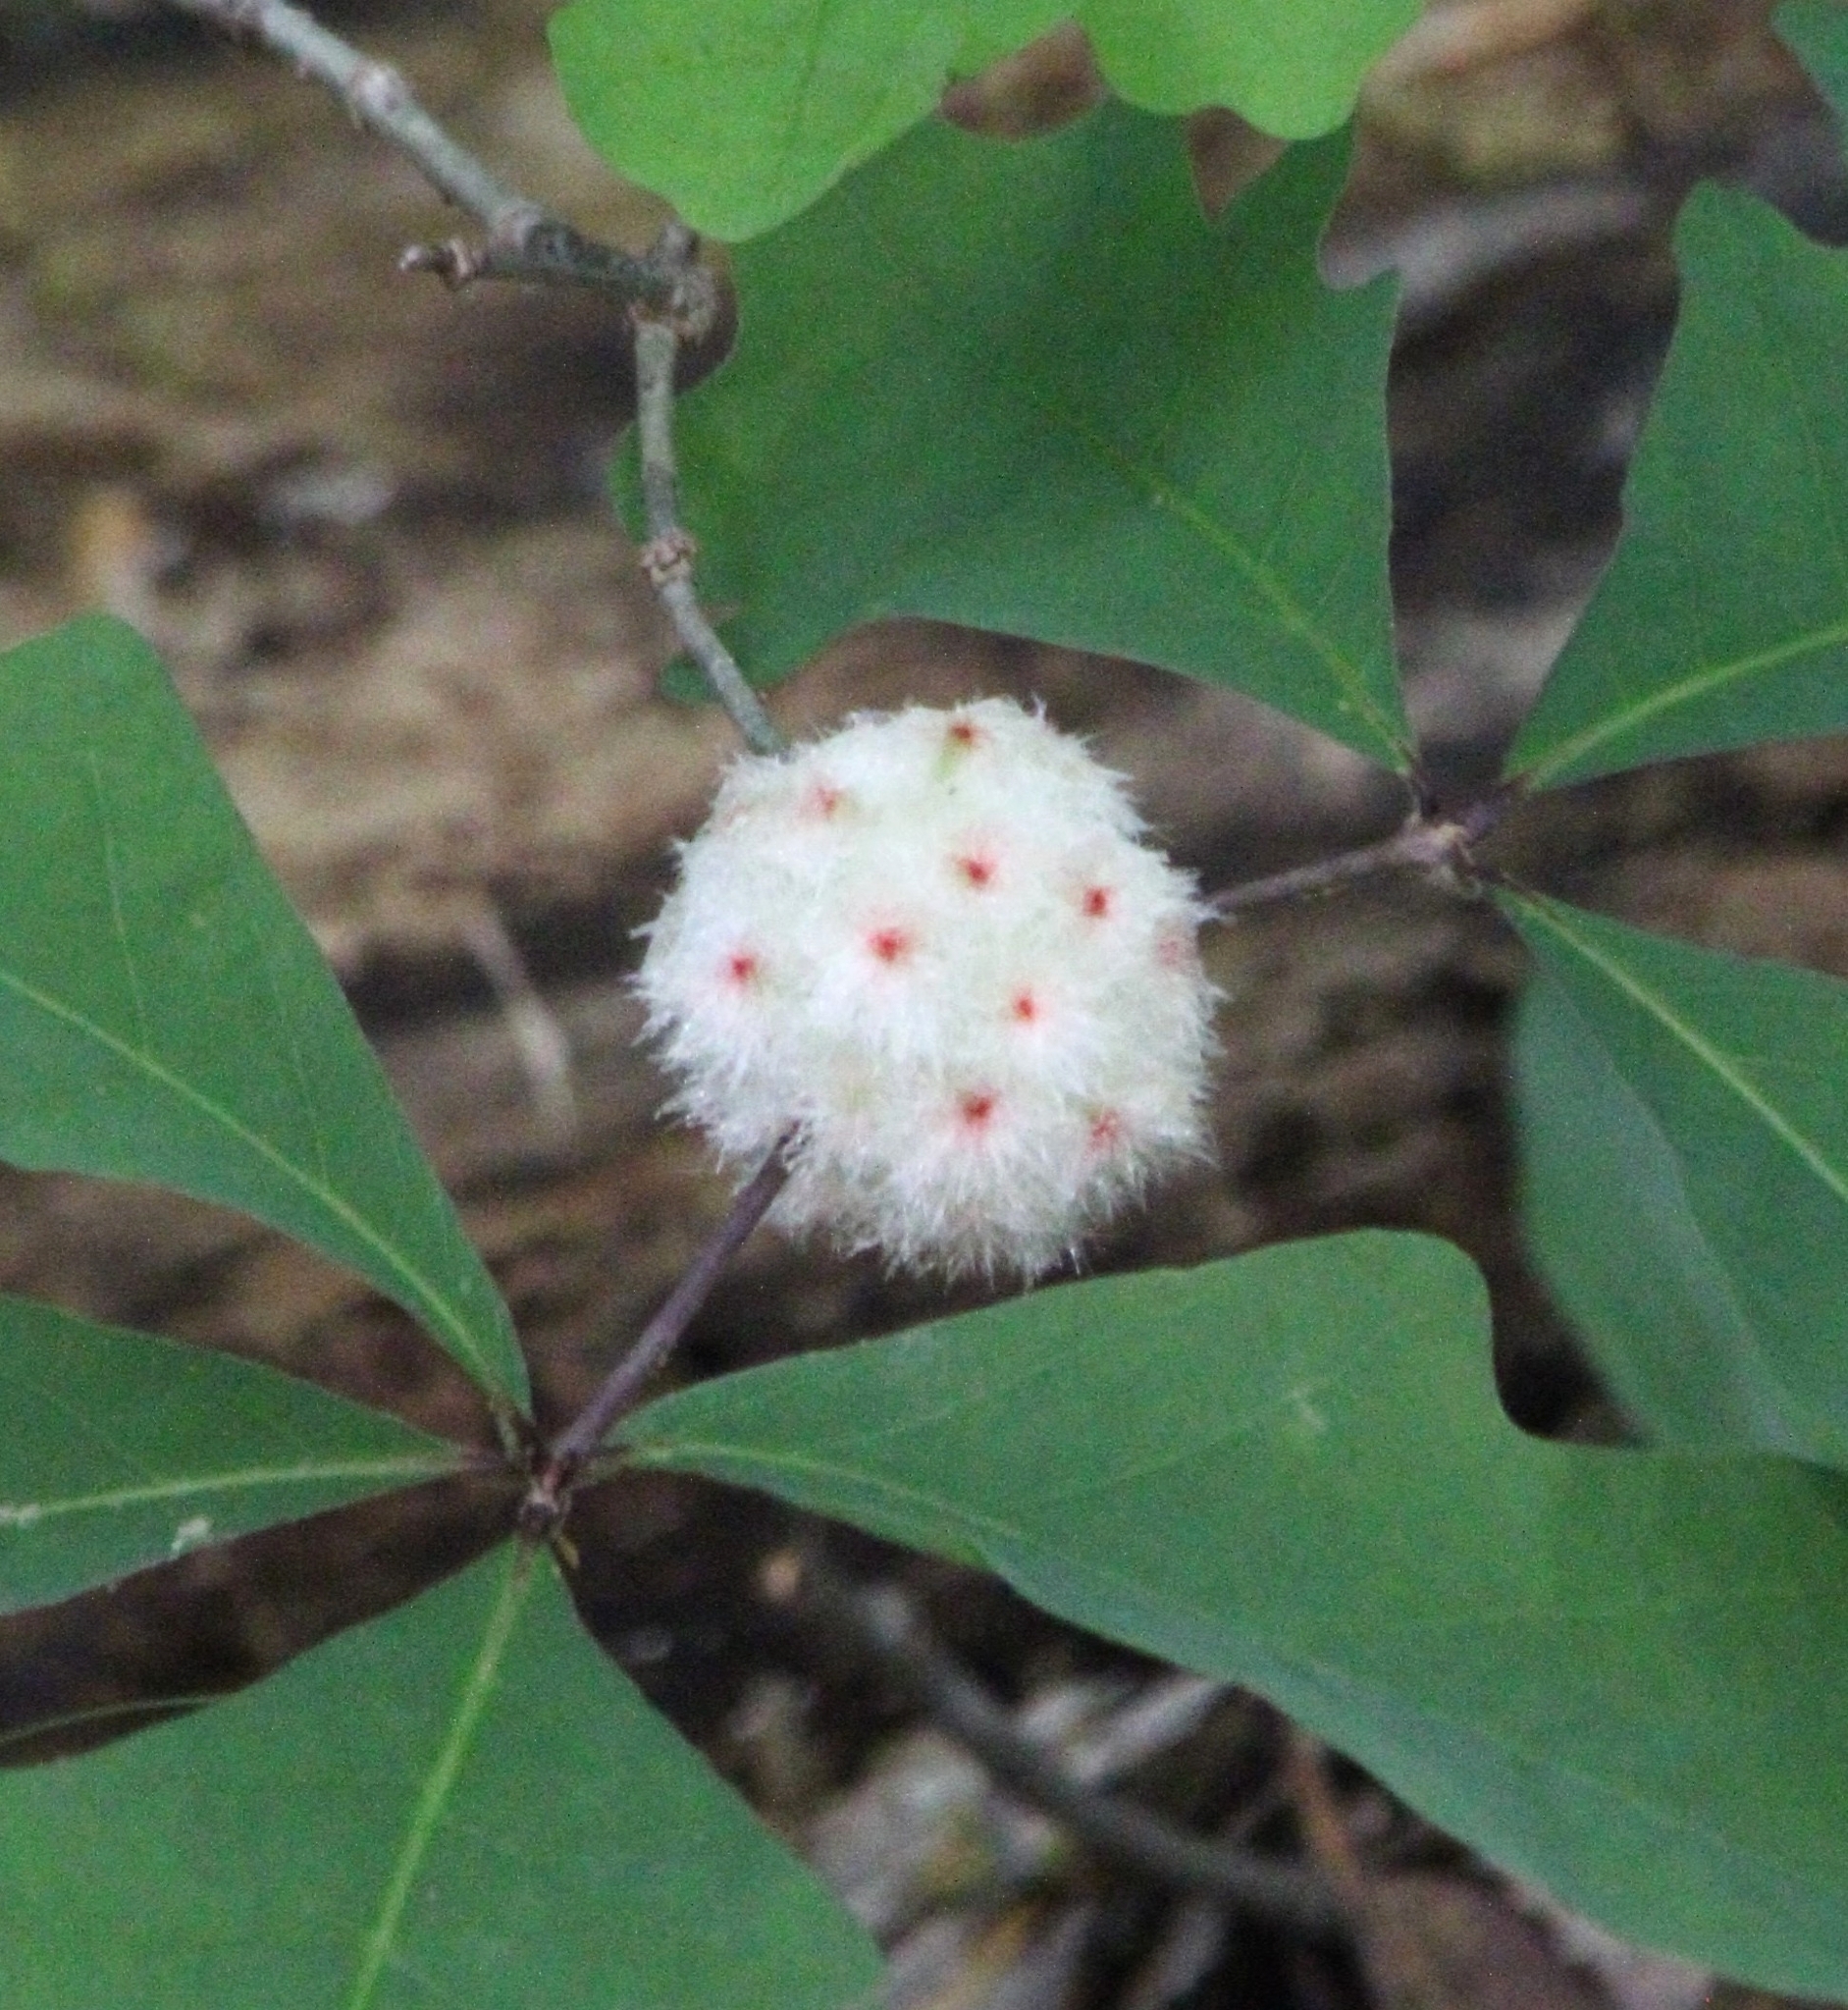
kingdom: Animalia
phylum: Arthropoda
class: Insecta
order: Hymenoptera
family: Cynipidae
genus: Callirhytis
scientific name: Callirhytis
